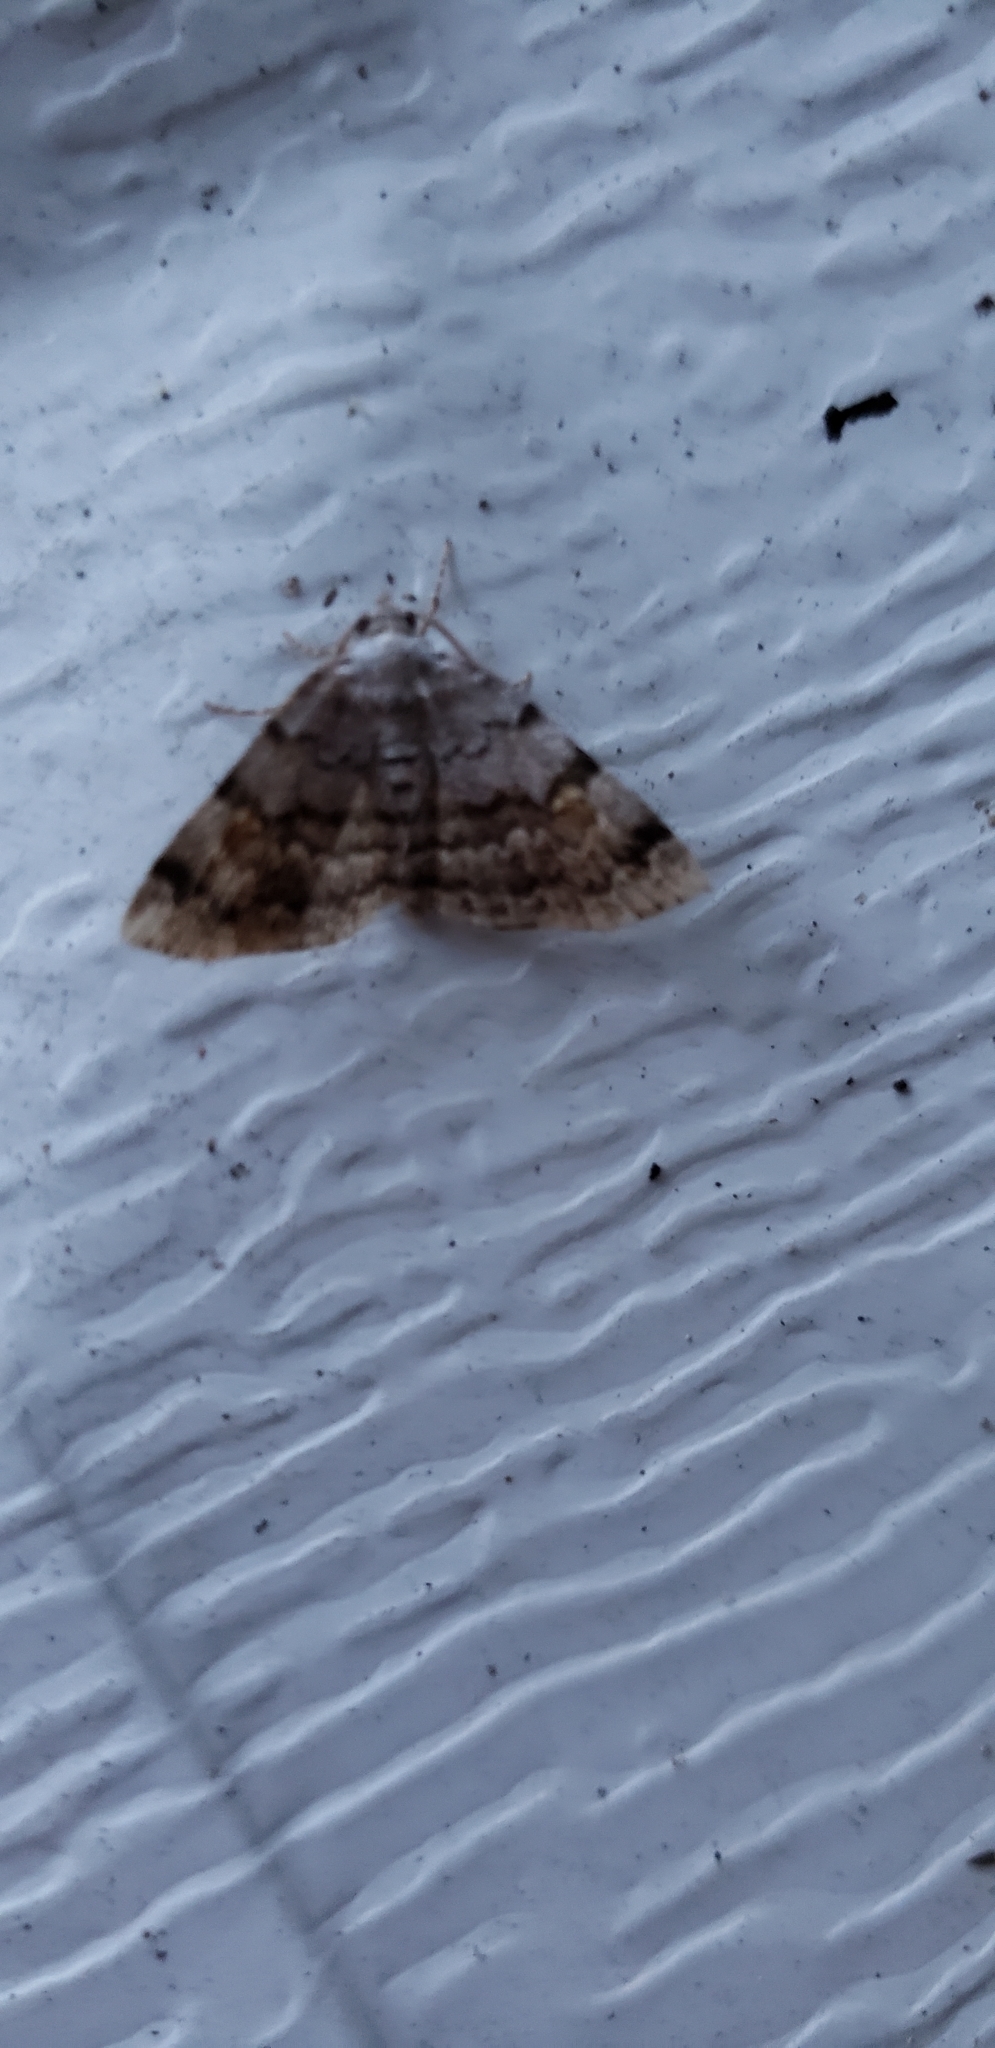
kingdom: Animalia
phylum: Arthropoda
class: Insecta
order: Lepidoptera
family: Erebidae
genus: Idia
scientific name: Idia americalis
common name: American idia moth
